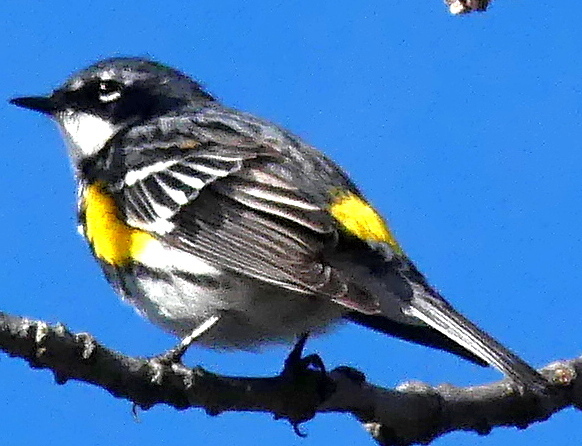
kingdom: Animalia
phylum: Chordata
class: Aves
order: Passeriformes
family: Parulidae
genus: Setophaga
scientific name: Setophaga coronata
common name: Myrtle warbler
